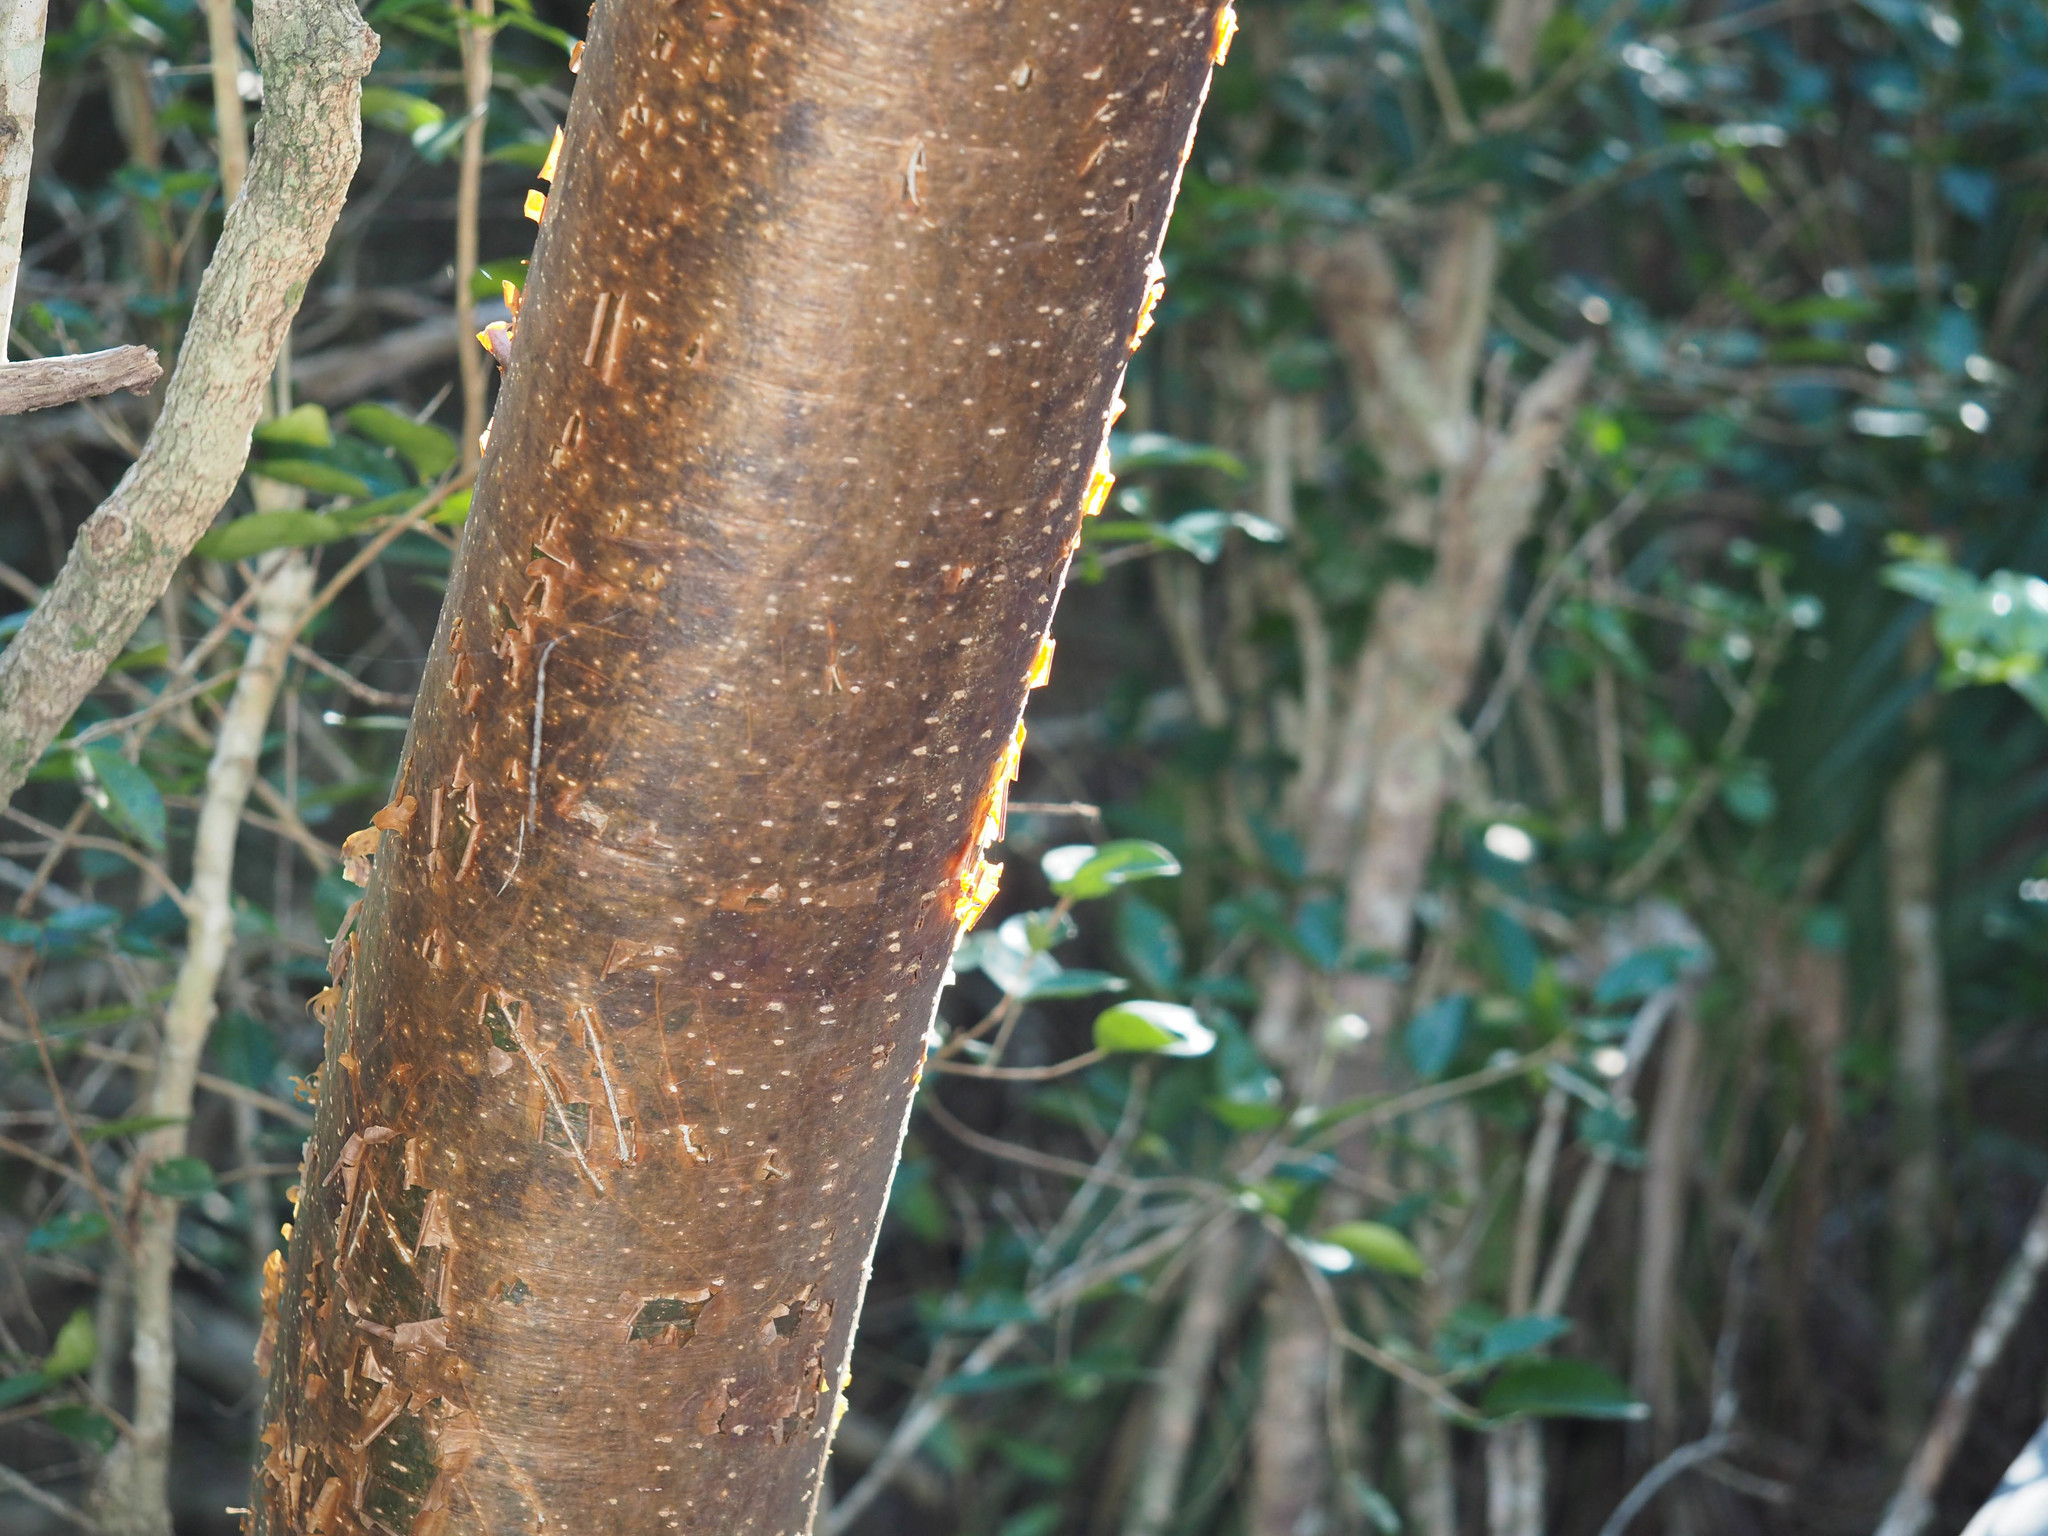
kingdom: Plantae
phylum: Tracheophyta
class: Magnoliopsida
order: Sapindales
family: Burseraceae
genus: Bursera
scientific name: Bursera simaruba
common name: Turpentine tree
